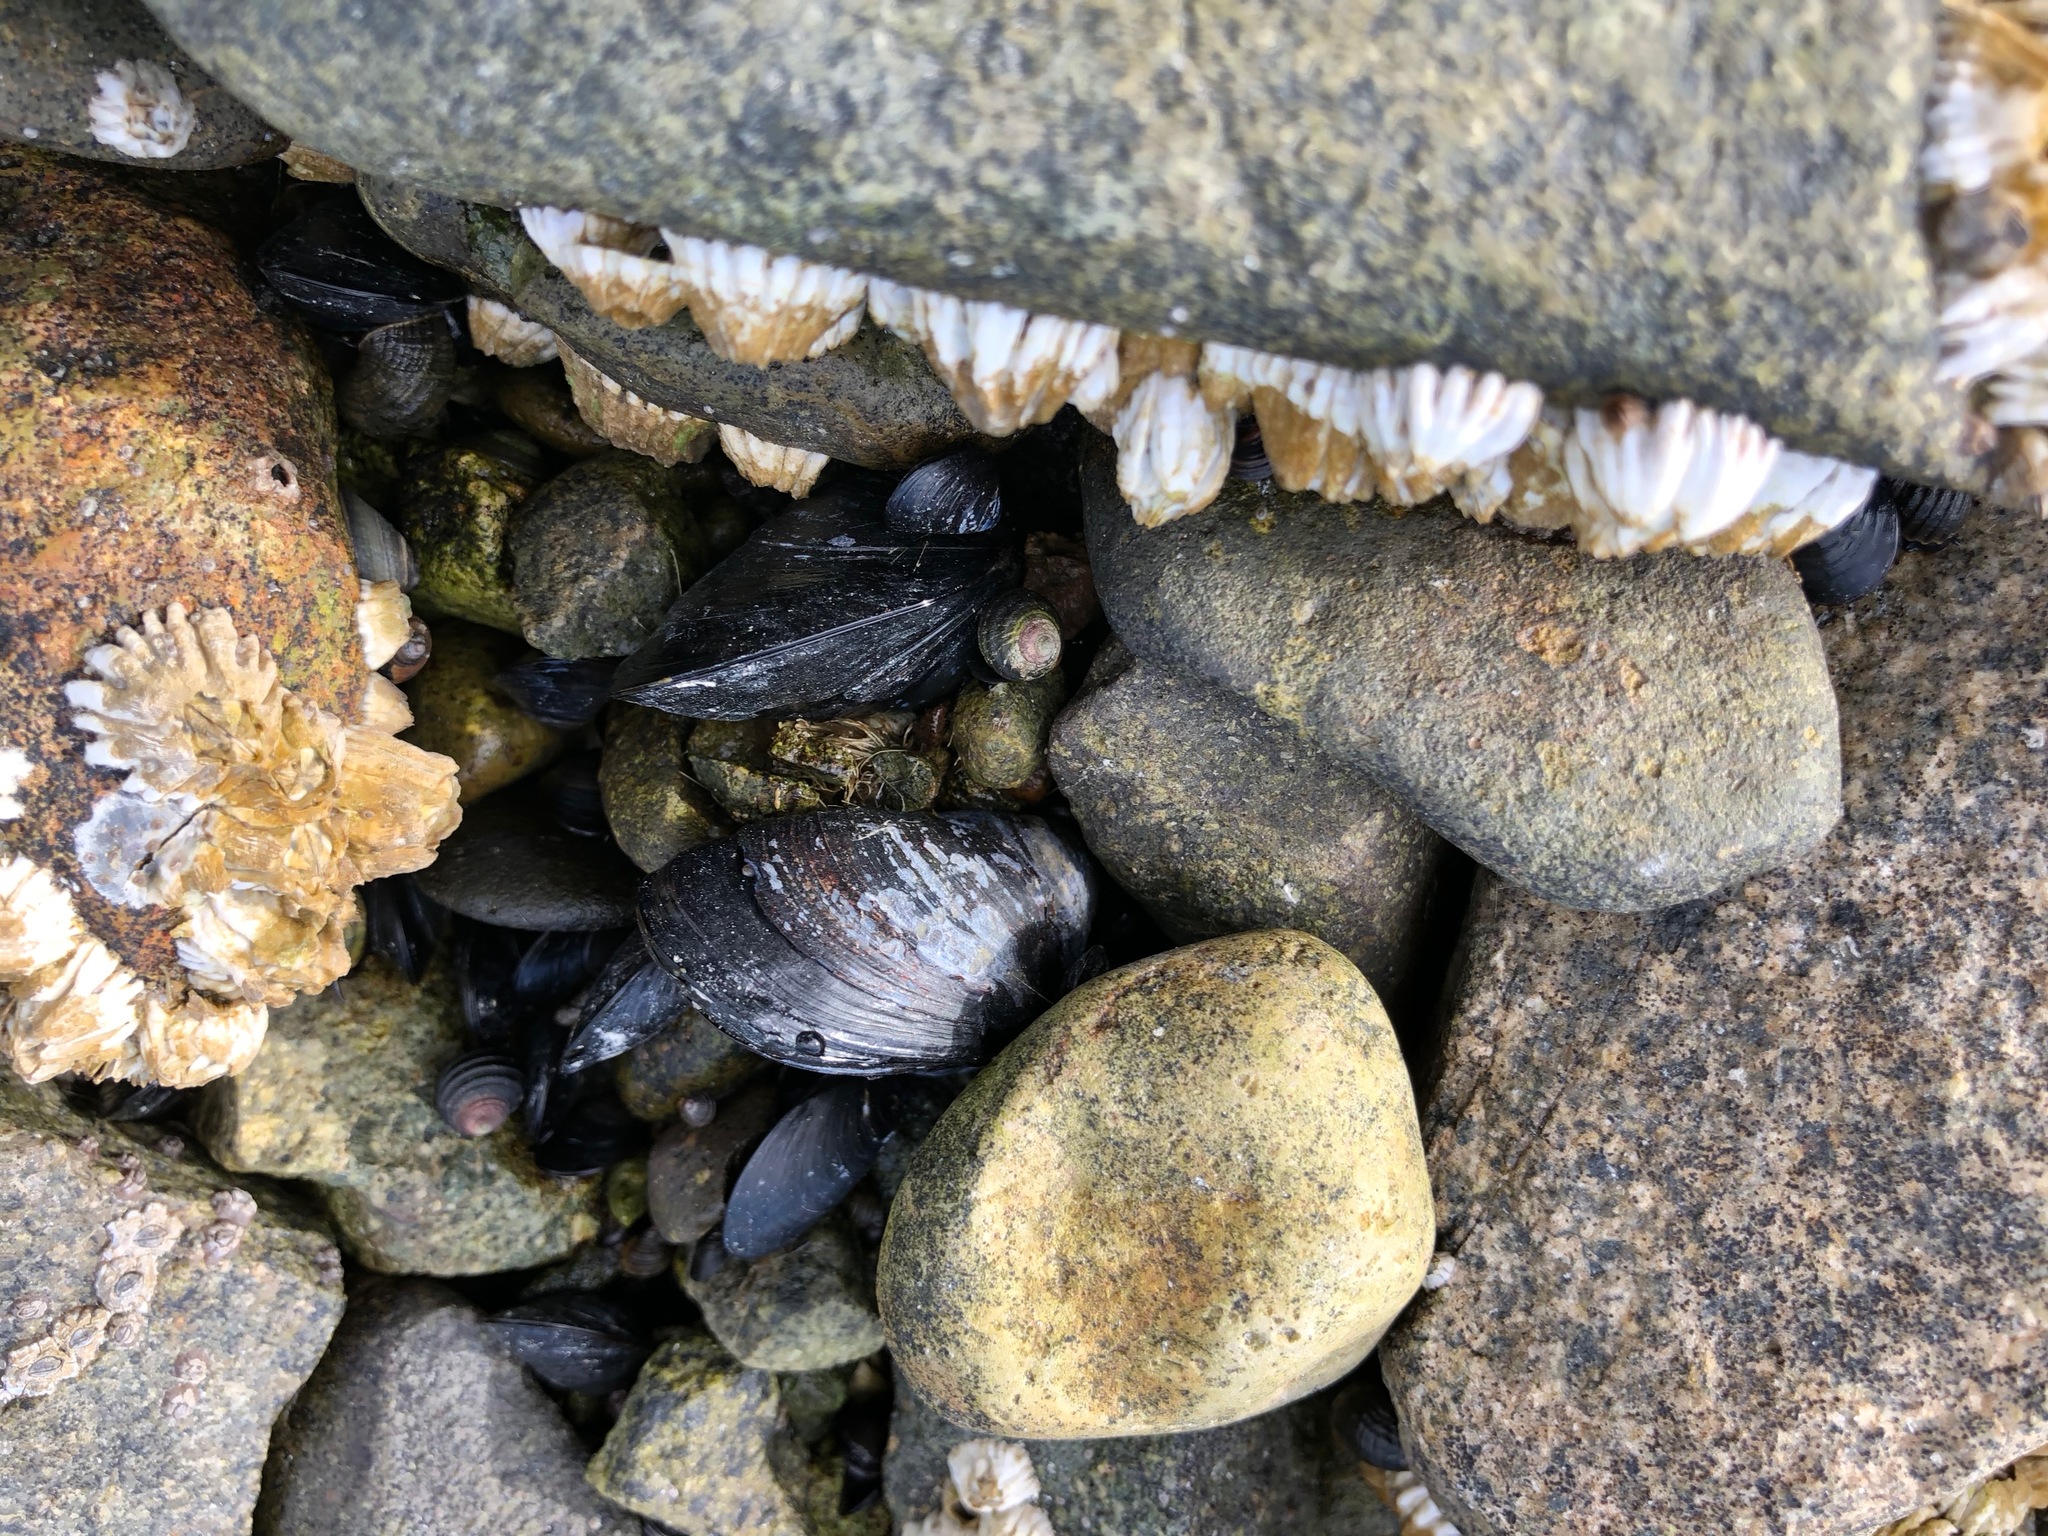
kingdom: Animalia
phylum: Mollusca
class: Bivalvia
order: Mytilida
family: Mytilidae
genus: Mytilus
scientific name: Mytilus trossulus
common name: Northern blue mussel
